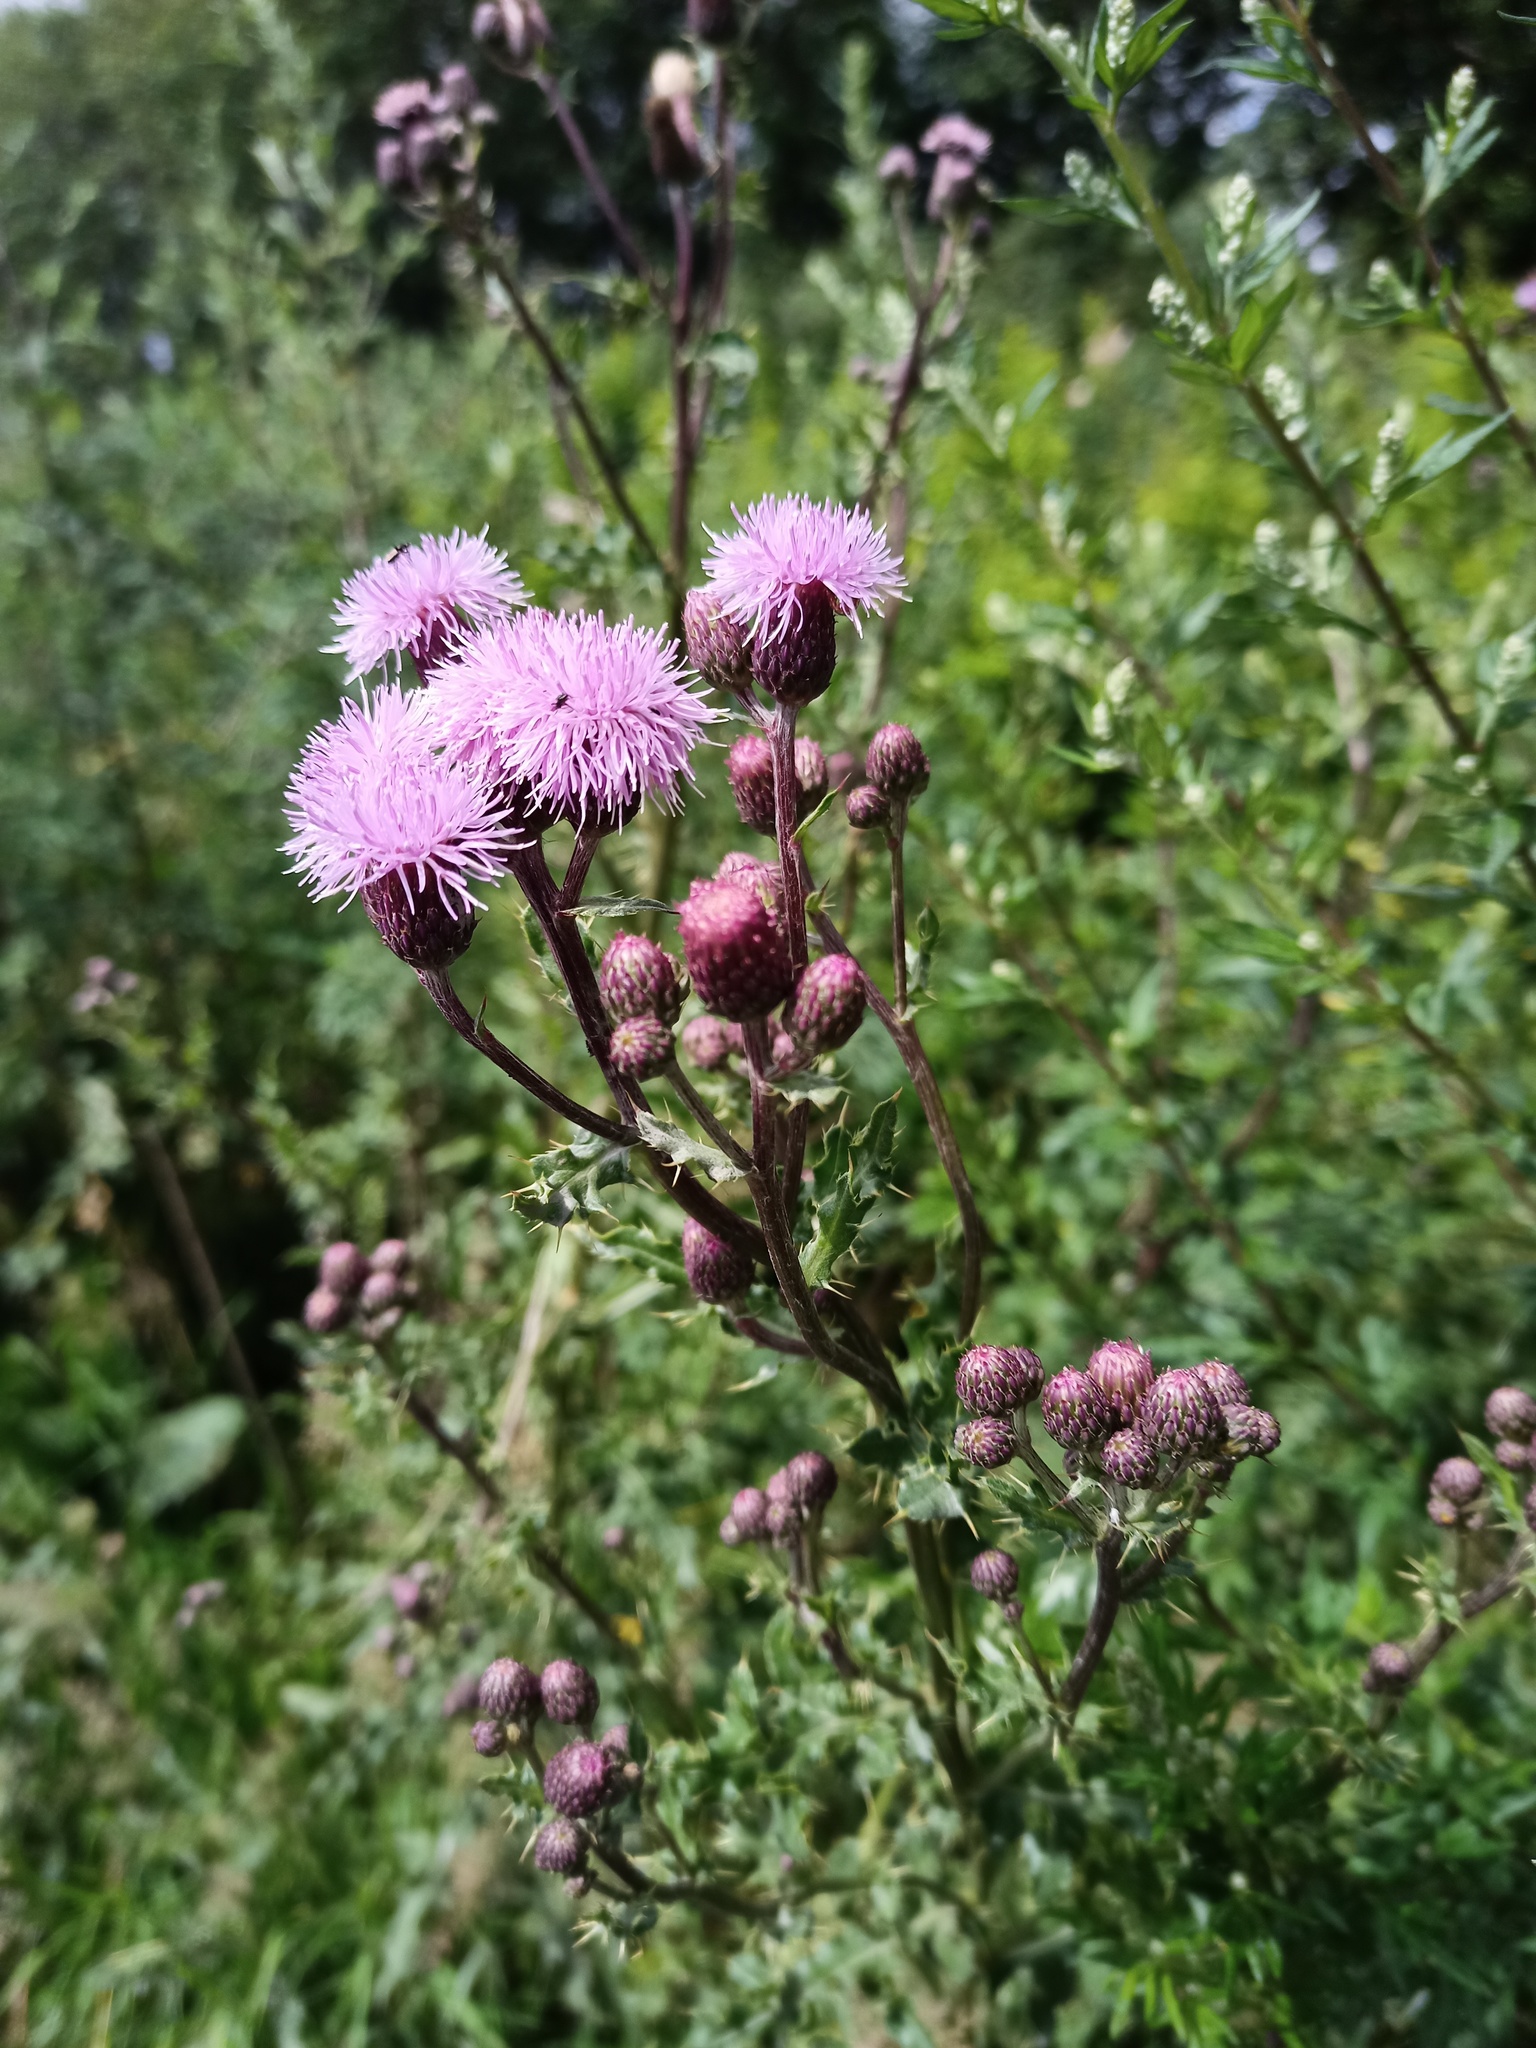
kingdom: Plantae
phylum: Tracheophyta
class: Magnoliopsida
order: Asterales
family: Asteraceae
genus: Cirsium
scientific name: Cirsium arvense
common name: Creeping thistle
